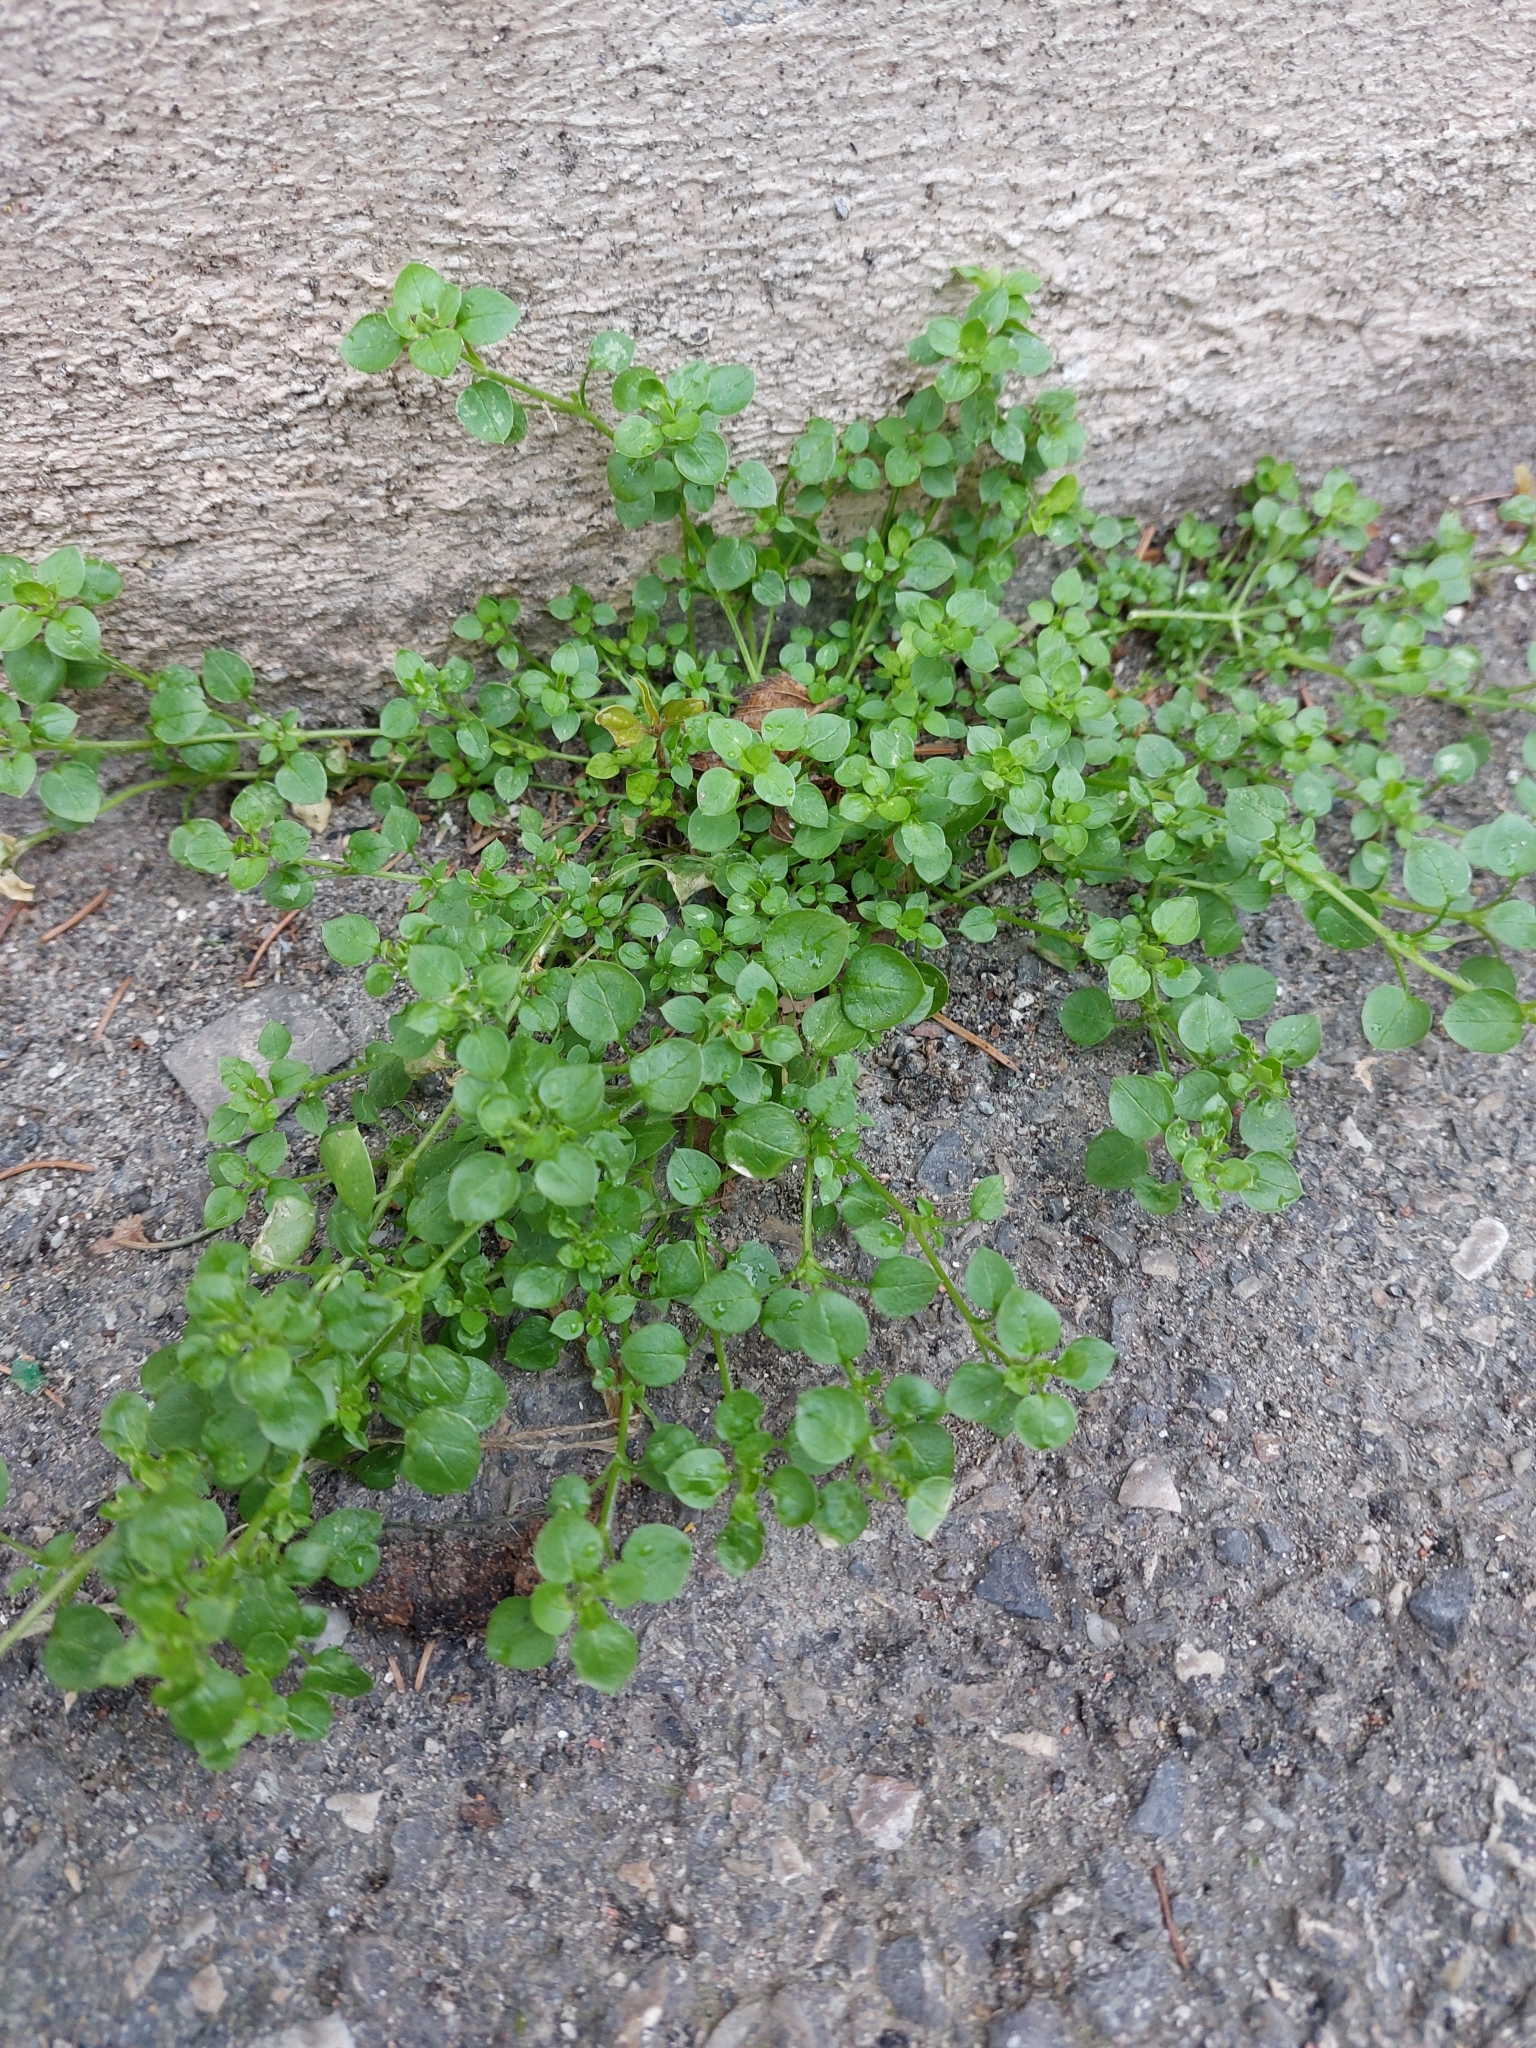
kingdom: Plantae
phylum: Tracheophyta
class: Magnoliopsida
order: Caryophyllales
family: Caryophyllaceae
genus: Stellaria
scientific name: Stellaria media
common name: Common chickweed
